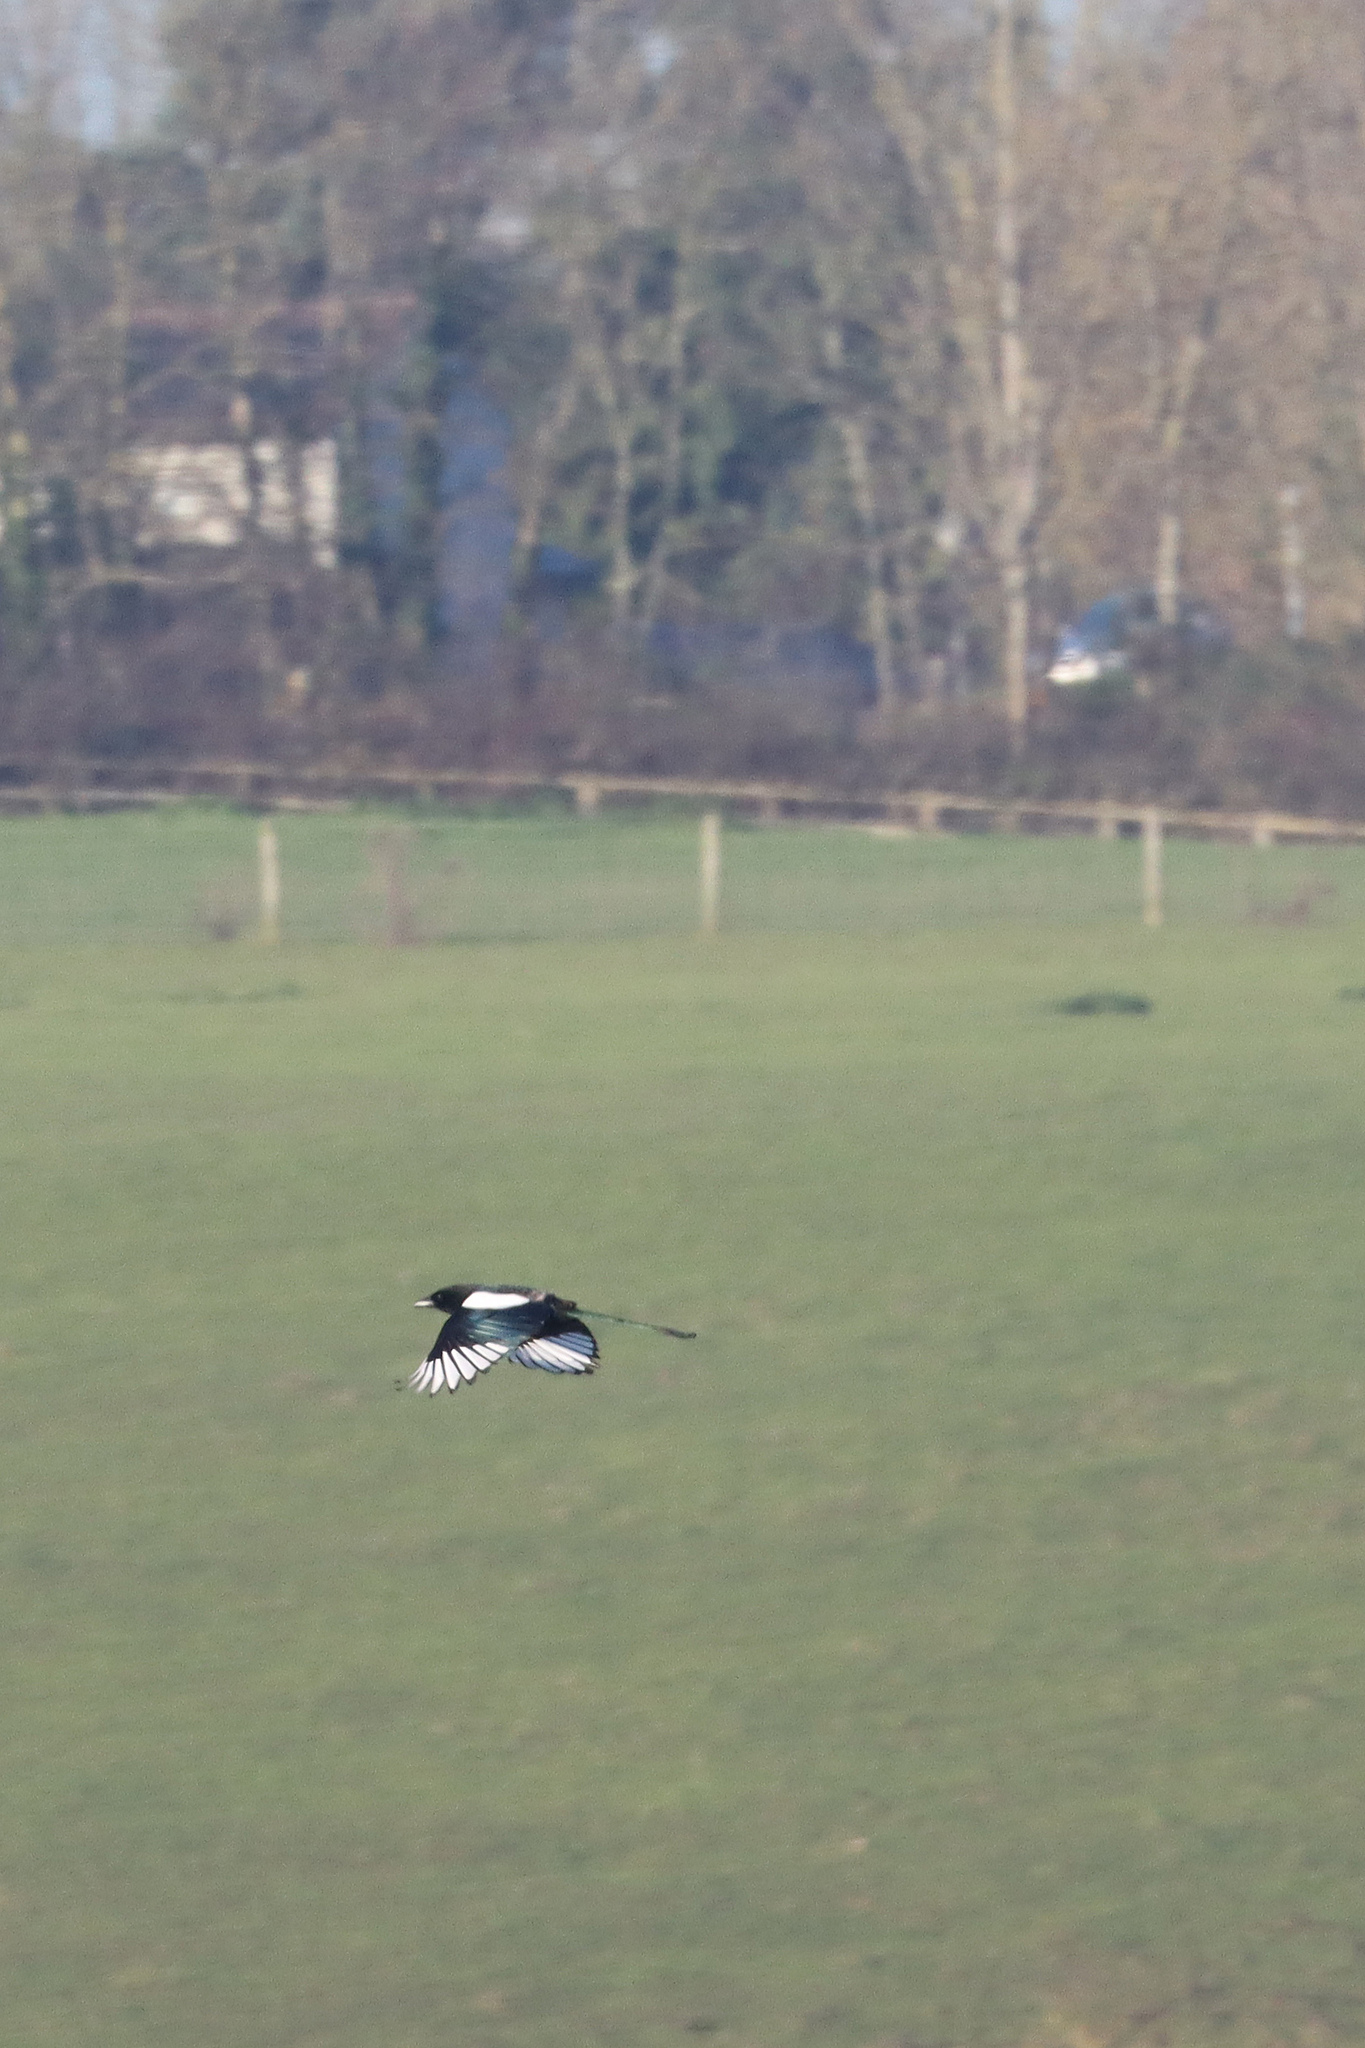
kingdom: Animalia
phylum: Chordata
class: Aves
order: Passeriformes
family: Corvidae
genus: Pica
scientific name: Pica pica
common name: Eurasian magpie
